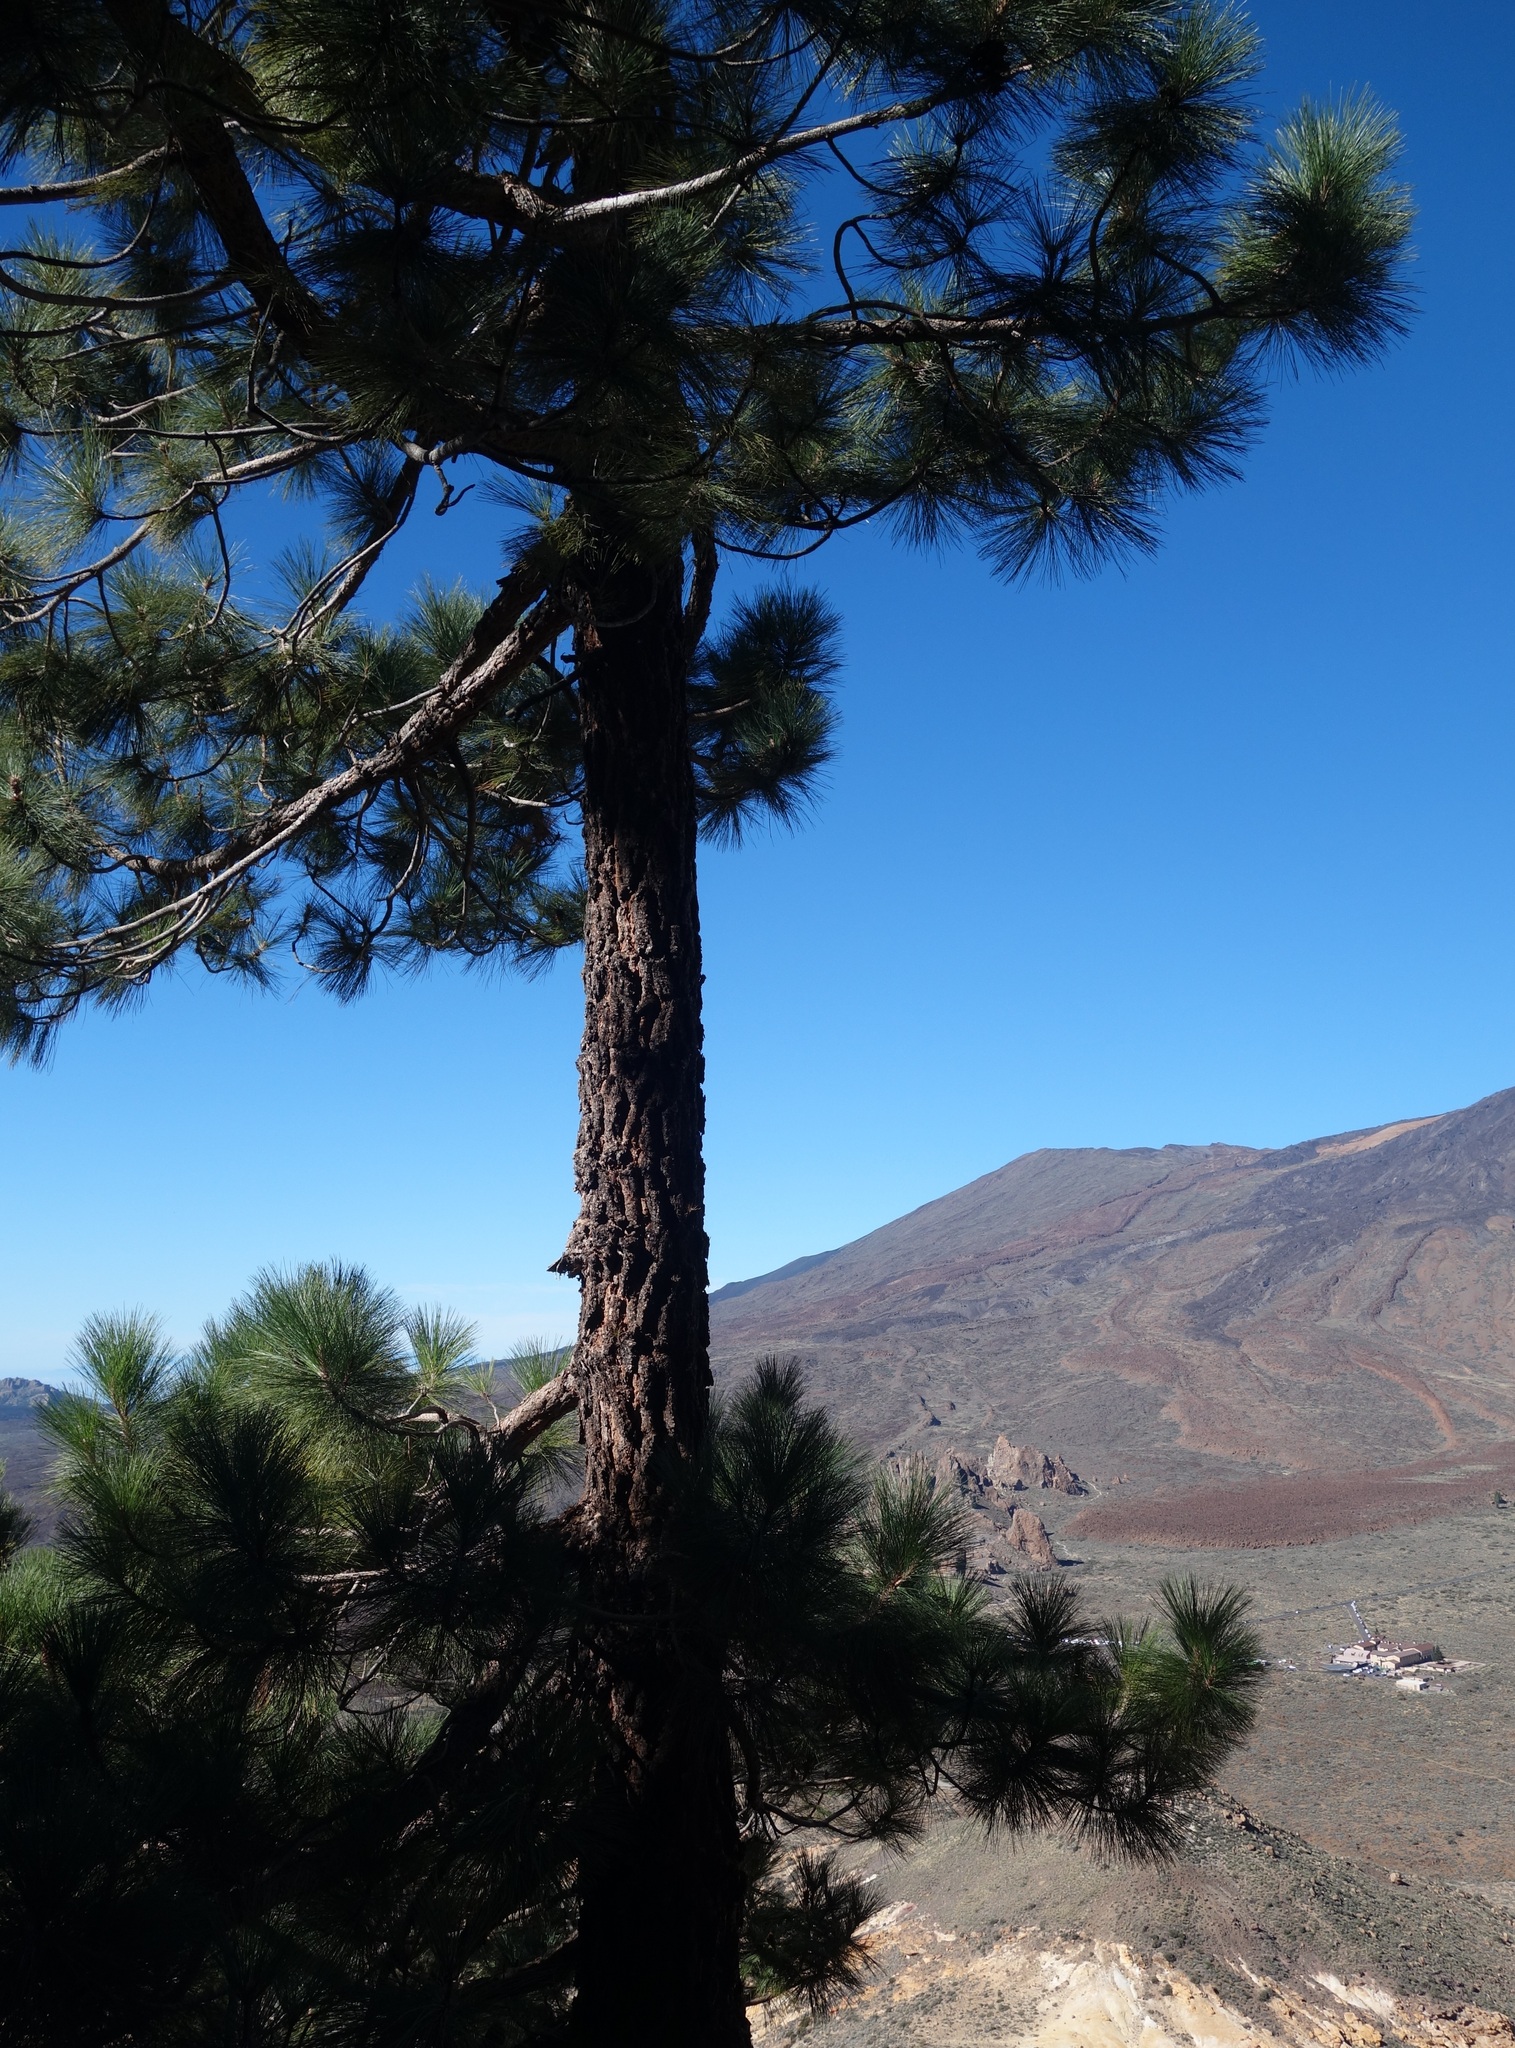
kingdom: Plantae
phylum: Tracheophyta
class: Pinopsida
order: Pinales
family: Pinaceae
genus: Pinus
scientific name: Pinus canariensis
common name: Canary islands pine
